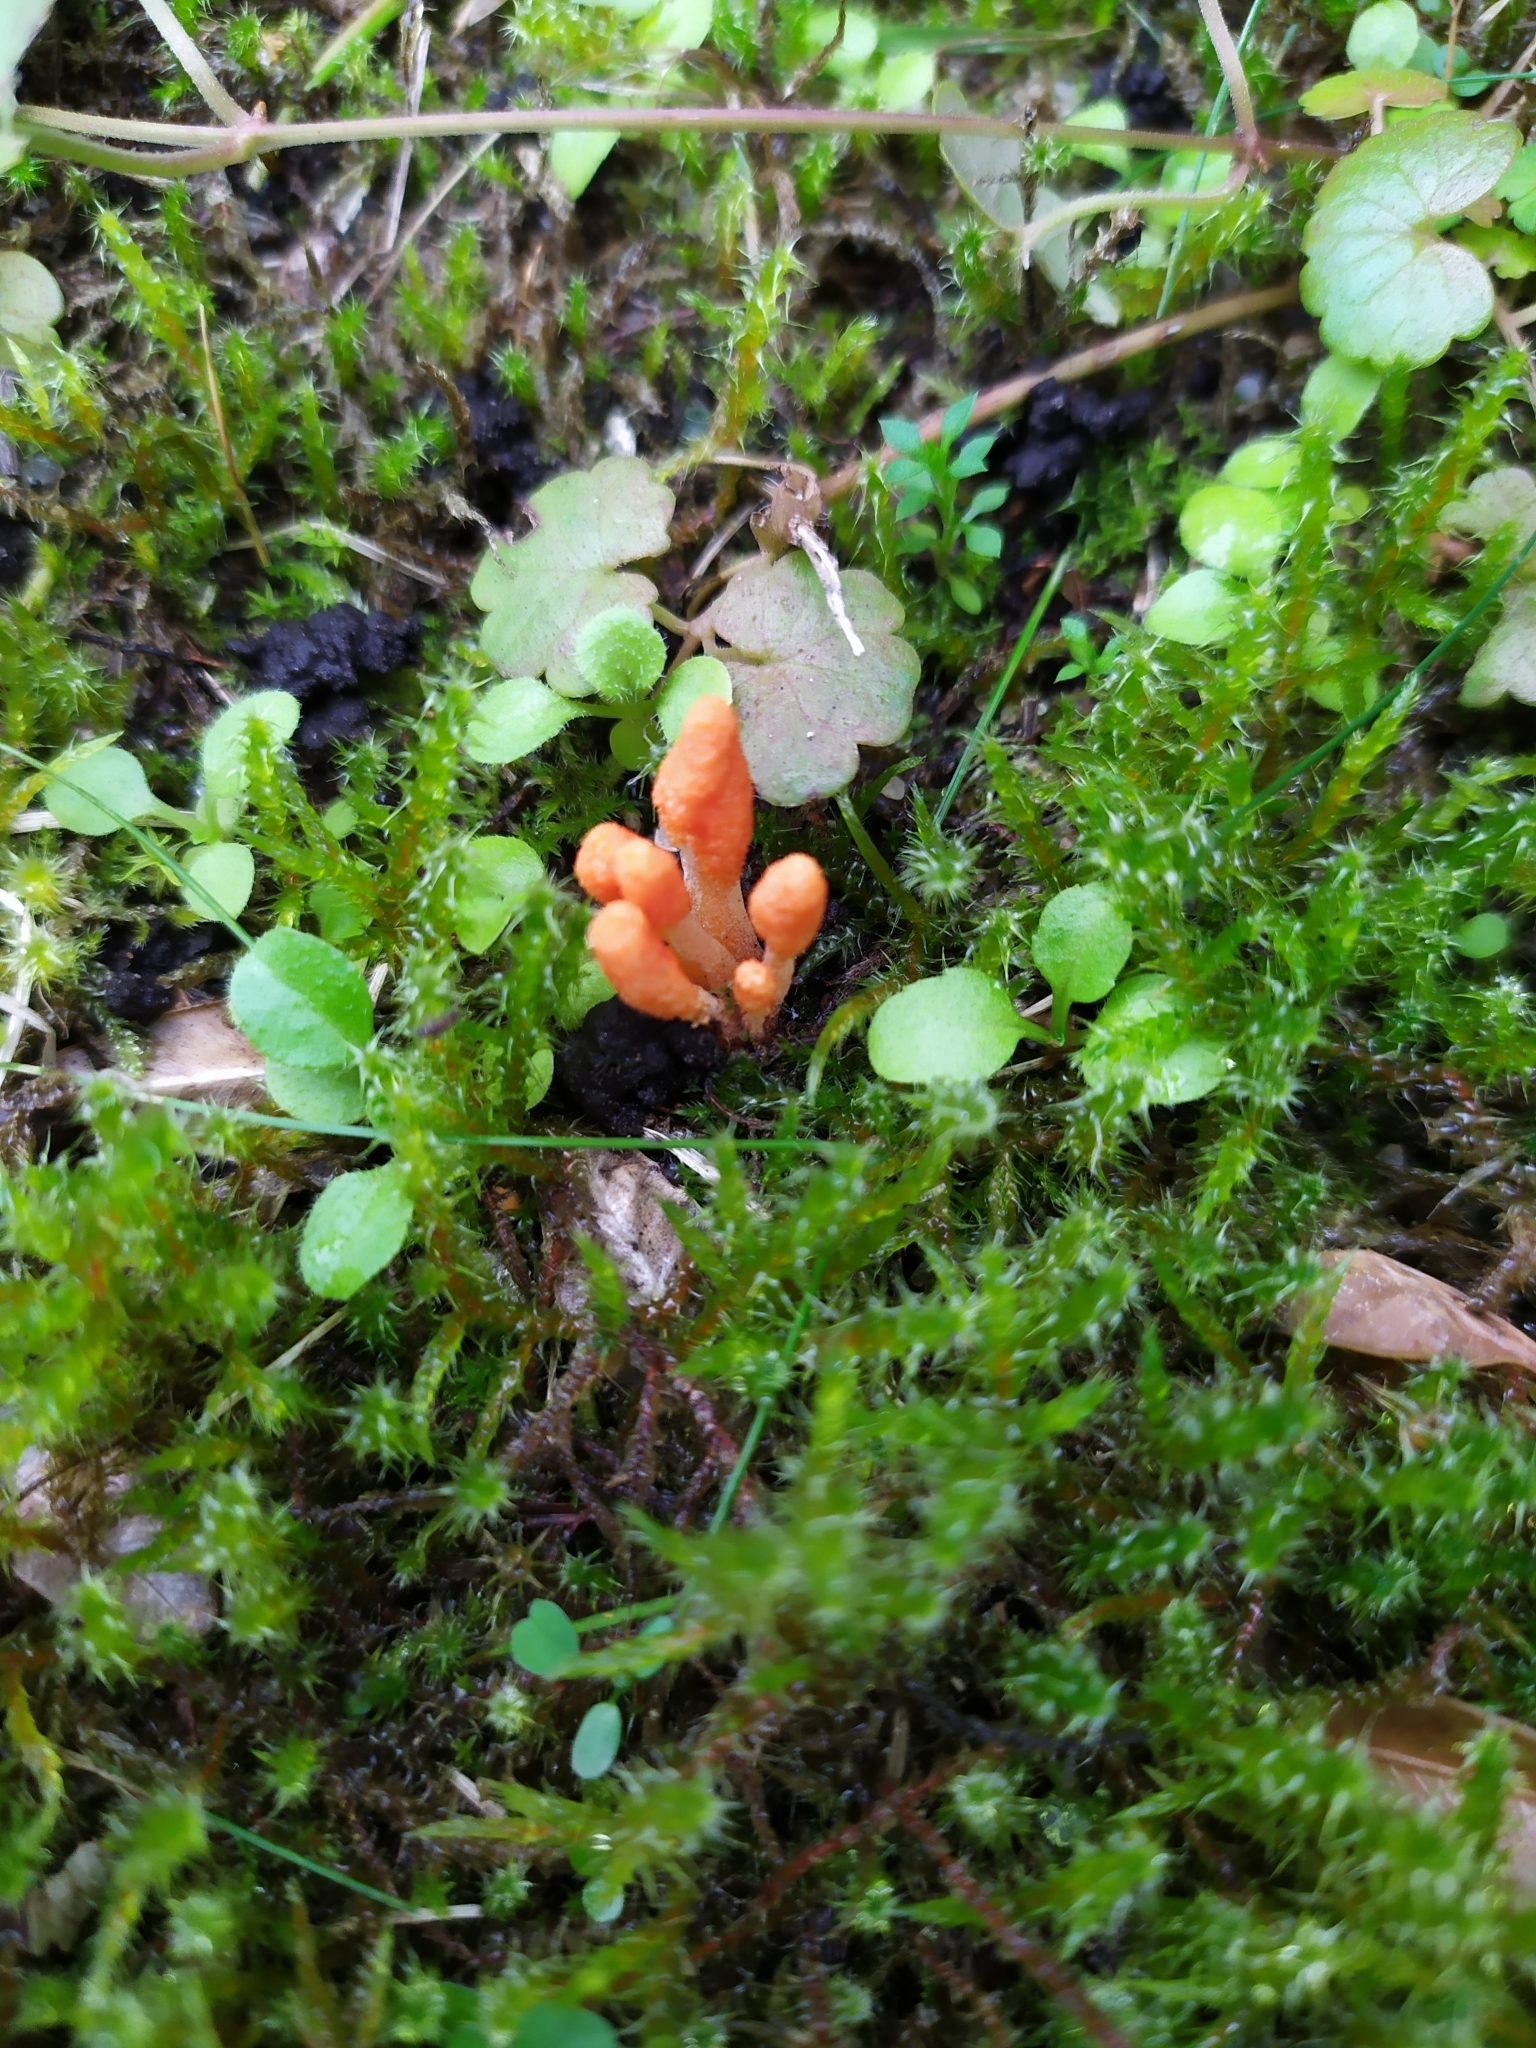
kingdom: Fungi
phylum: Ascomycota
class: Sordariomycetes
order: Hypocreales
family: Cordycipitaceae
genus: Cordyceps
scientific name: Cordyceps militaris
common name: Scarlet caterpillar fungus
